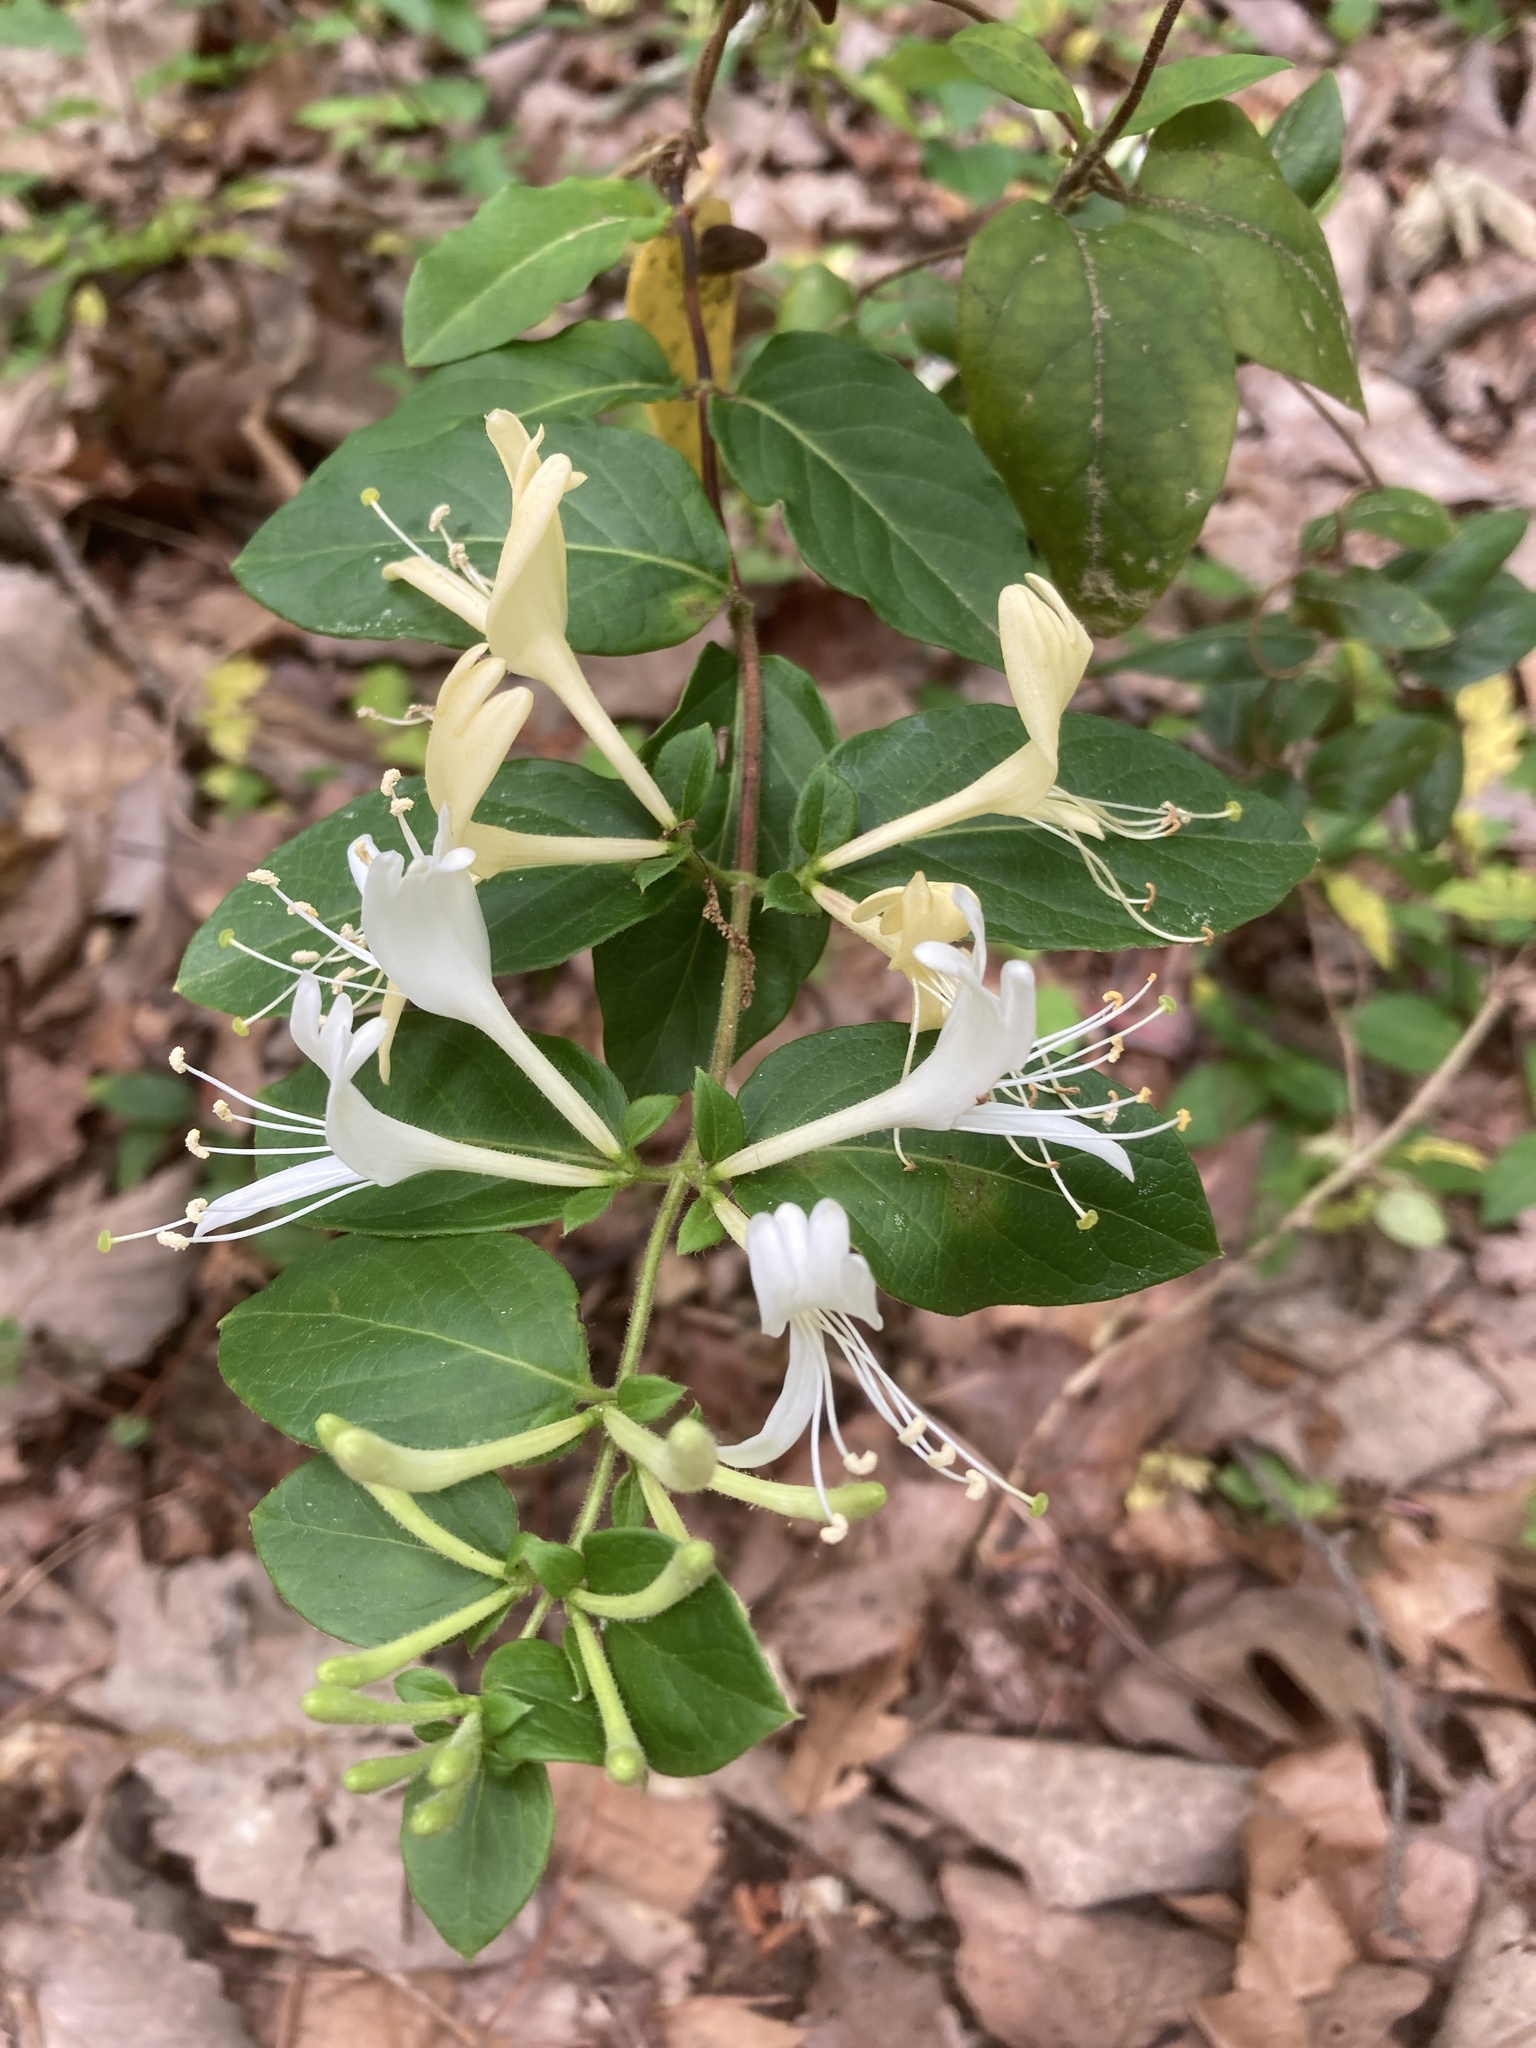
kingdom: Plantae
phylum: Tracheophyta
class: Magnoliopsida
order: Dipsacales
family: Caprifoliaceae
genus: Lonicera
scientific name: Lonicera japonica
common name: Japanese honeysuckle
